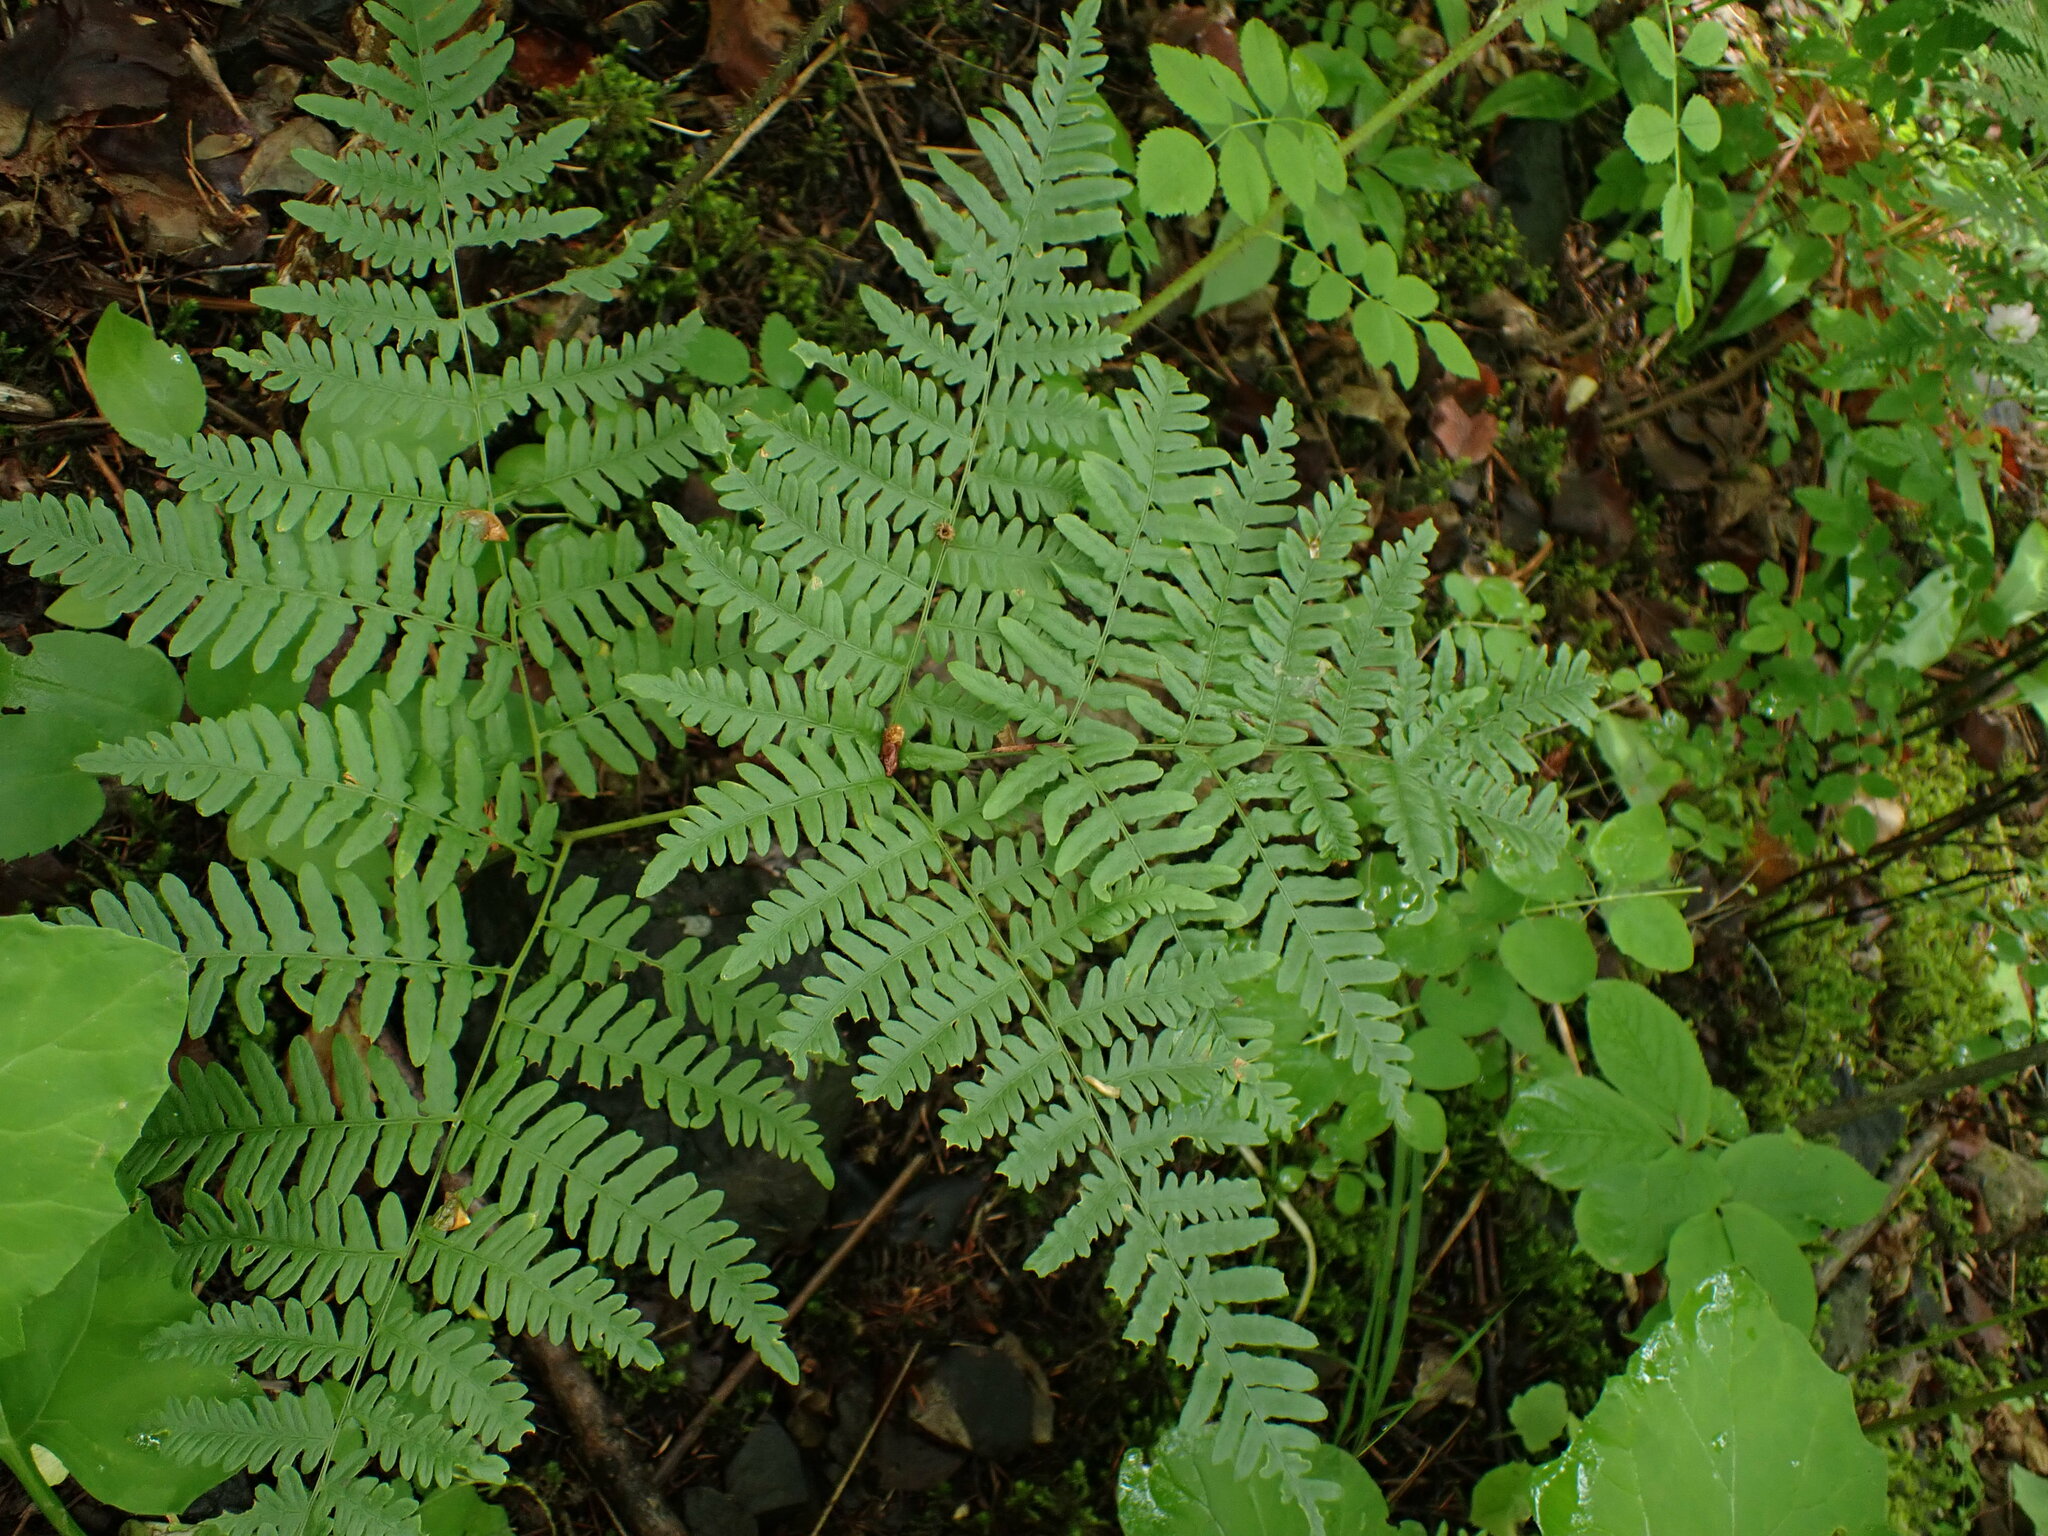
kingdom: Plantae
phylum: Tracheophyta
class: Polypodiopsida
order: Polypodiales
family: Dennstaedtiaceae
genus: Pteridium
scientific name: Pteridium aquilinum
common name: Bracken
